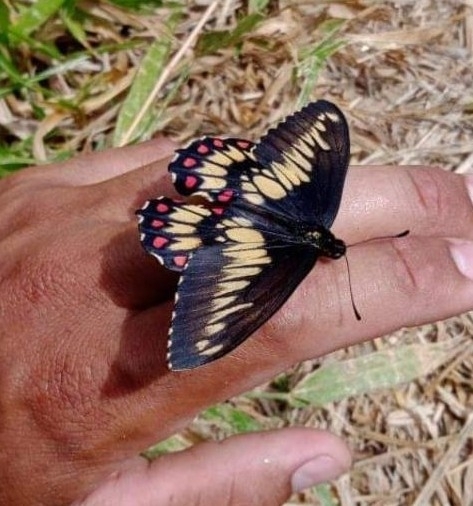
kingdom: Animalia
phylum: Arthropoda
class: Insecta
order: Lepidoptera
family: Papilionidae
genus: Euryades
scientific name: Euryades corethrus
